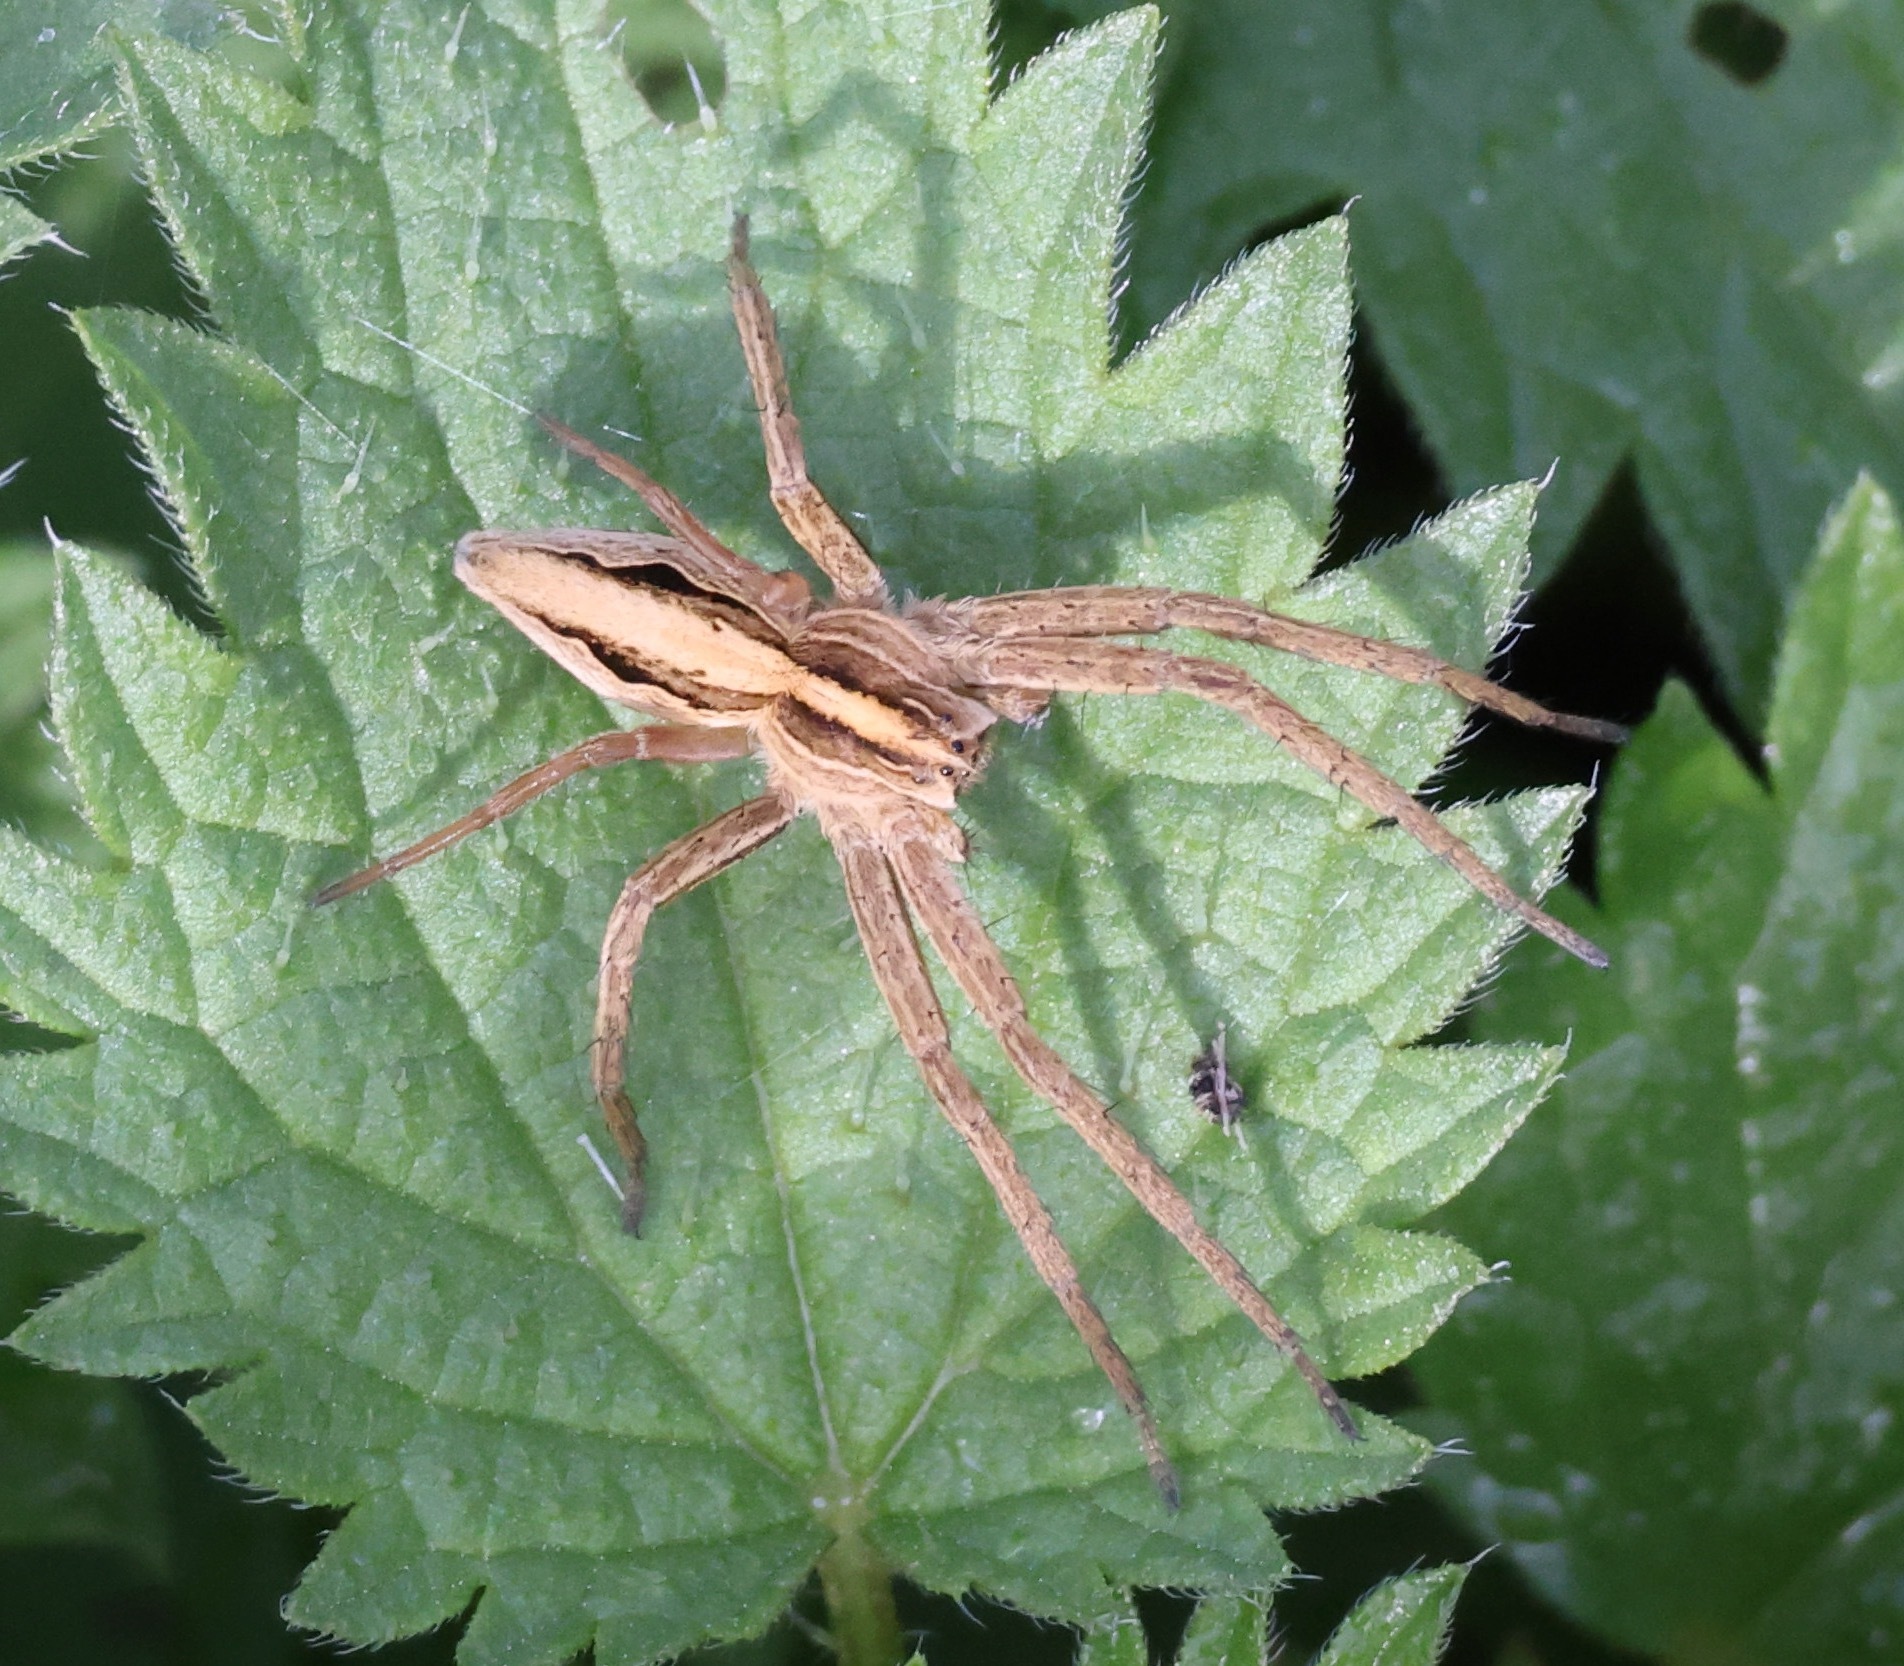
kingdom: Animalia
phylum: Arthropoda
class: Arachnida
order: Araneae
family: Pisauridae
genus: Pisaura
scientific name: Pisaura mirabilis
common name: Tent spider
